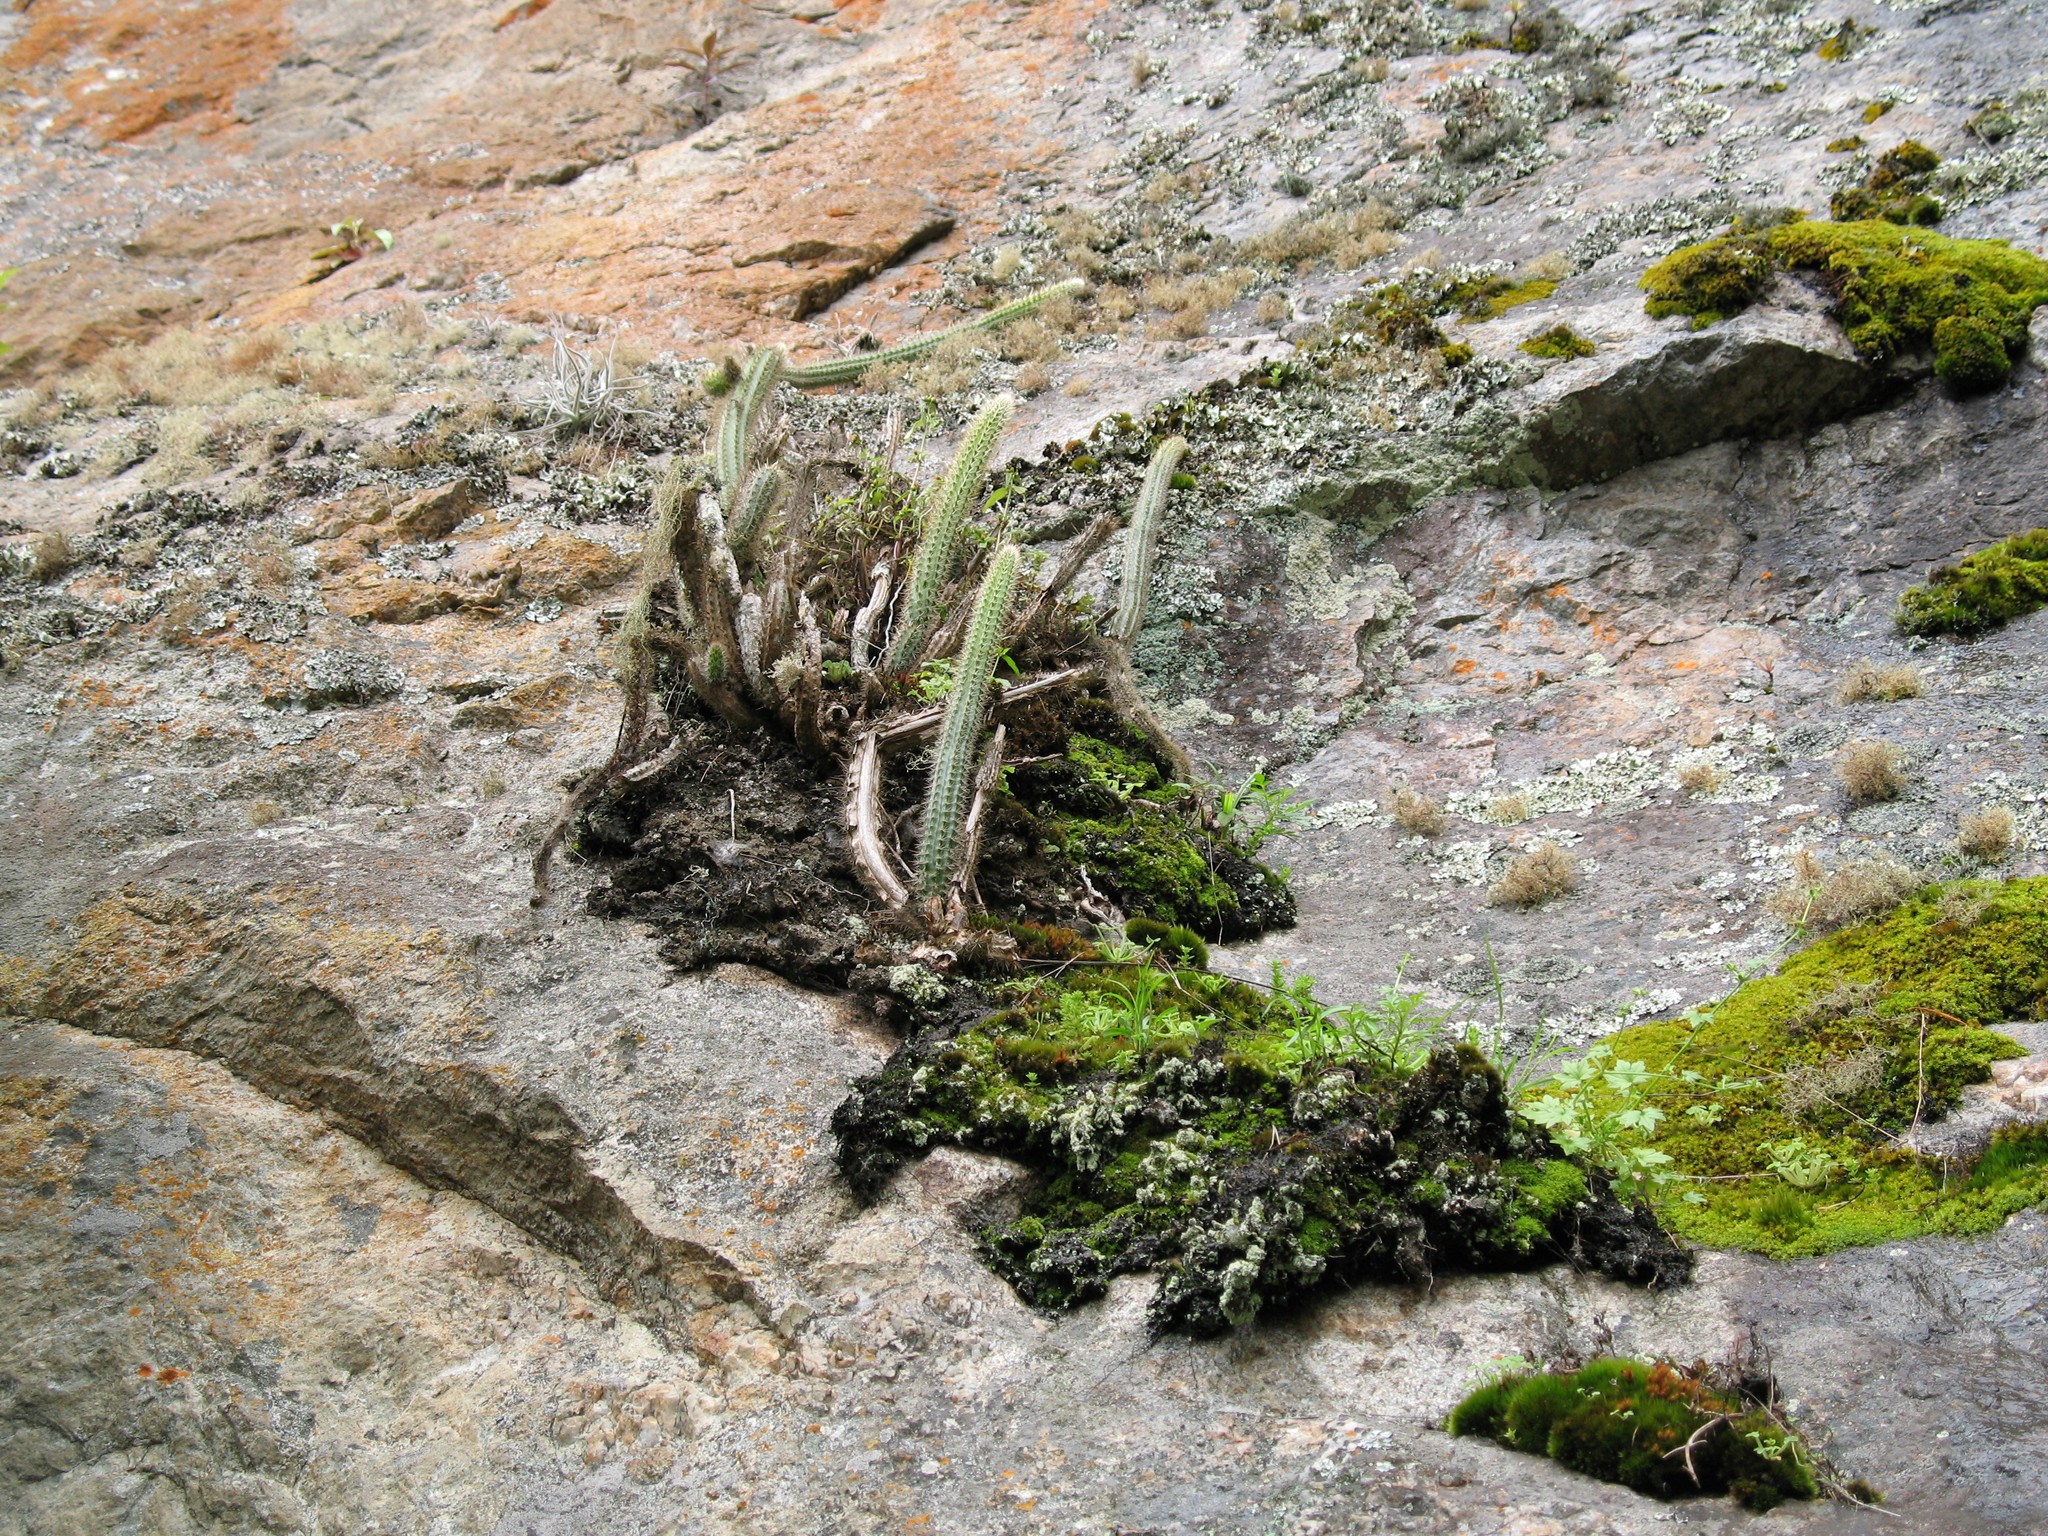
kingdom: Plantae
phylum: Tracheophyta
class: Magnoliopsida
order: Caryophyllales
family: Cactaceae
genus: Corryocactus
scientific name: Corryocactus erectus
